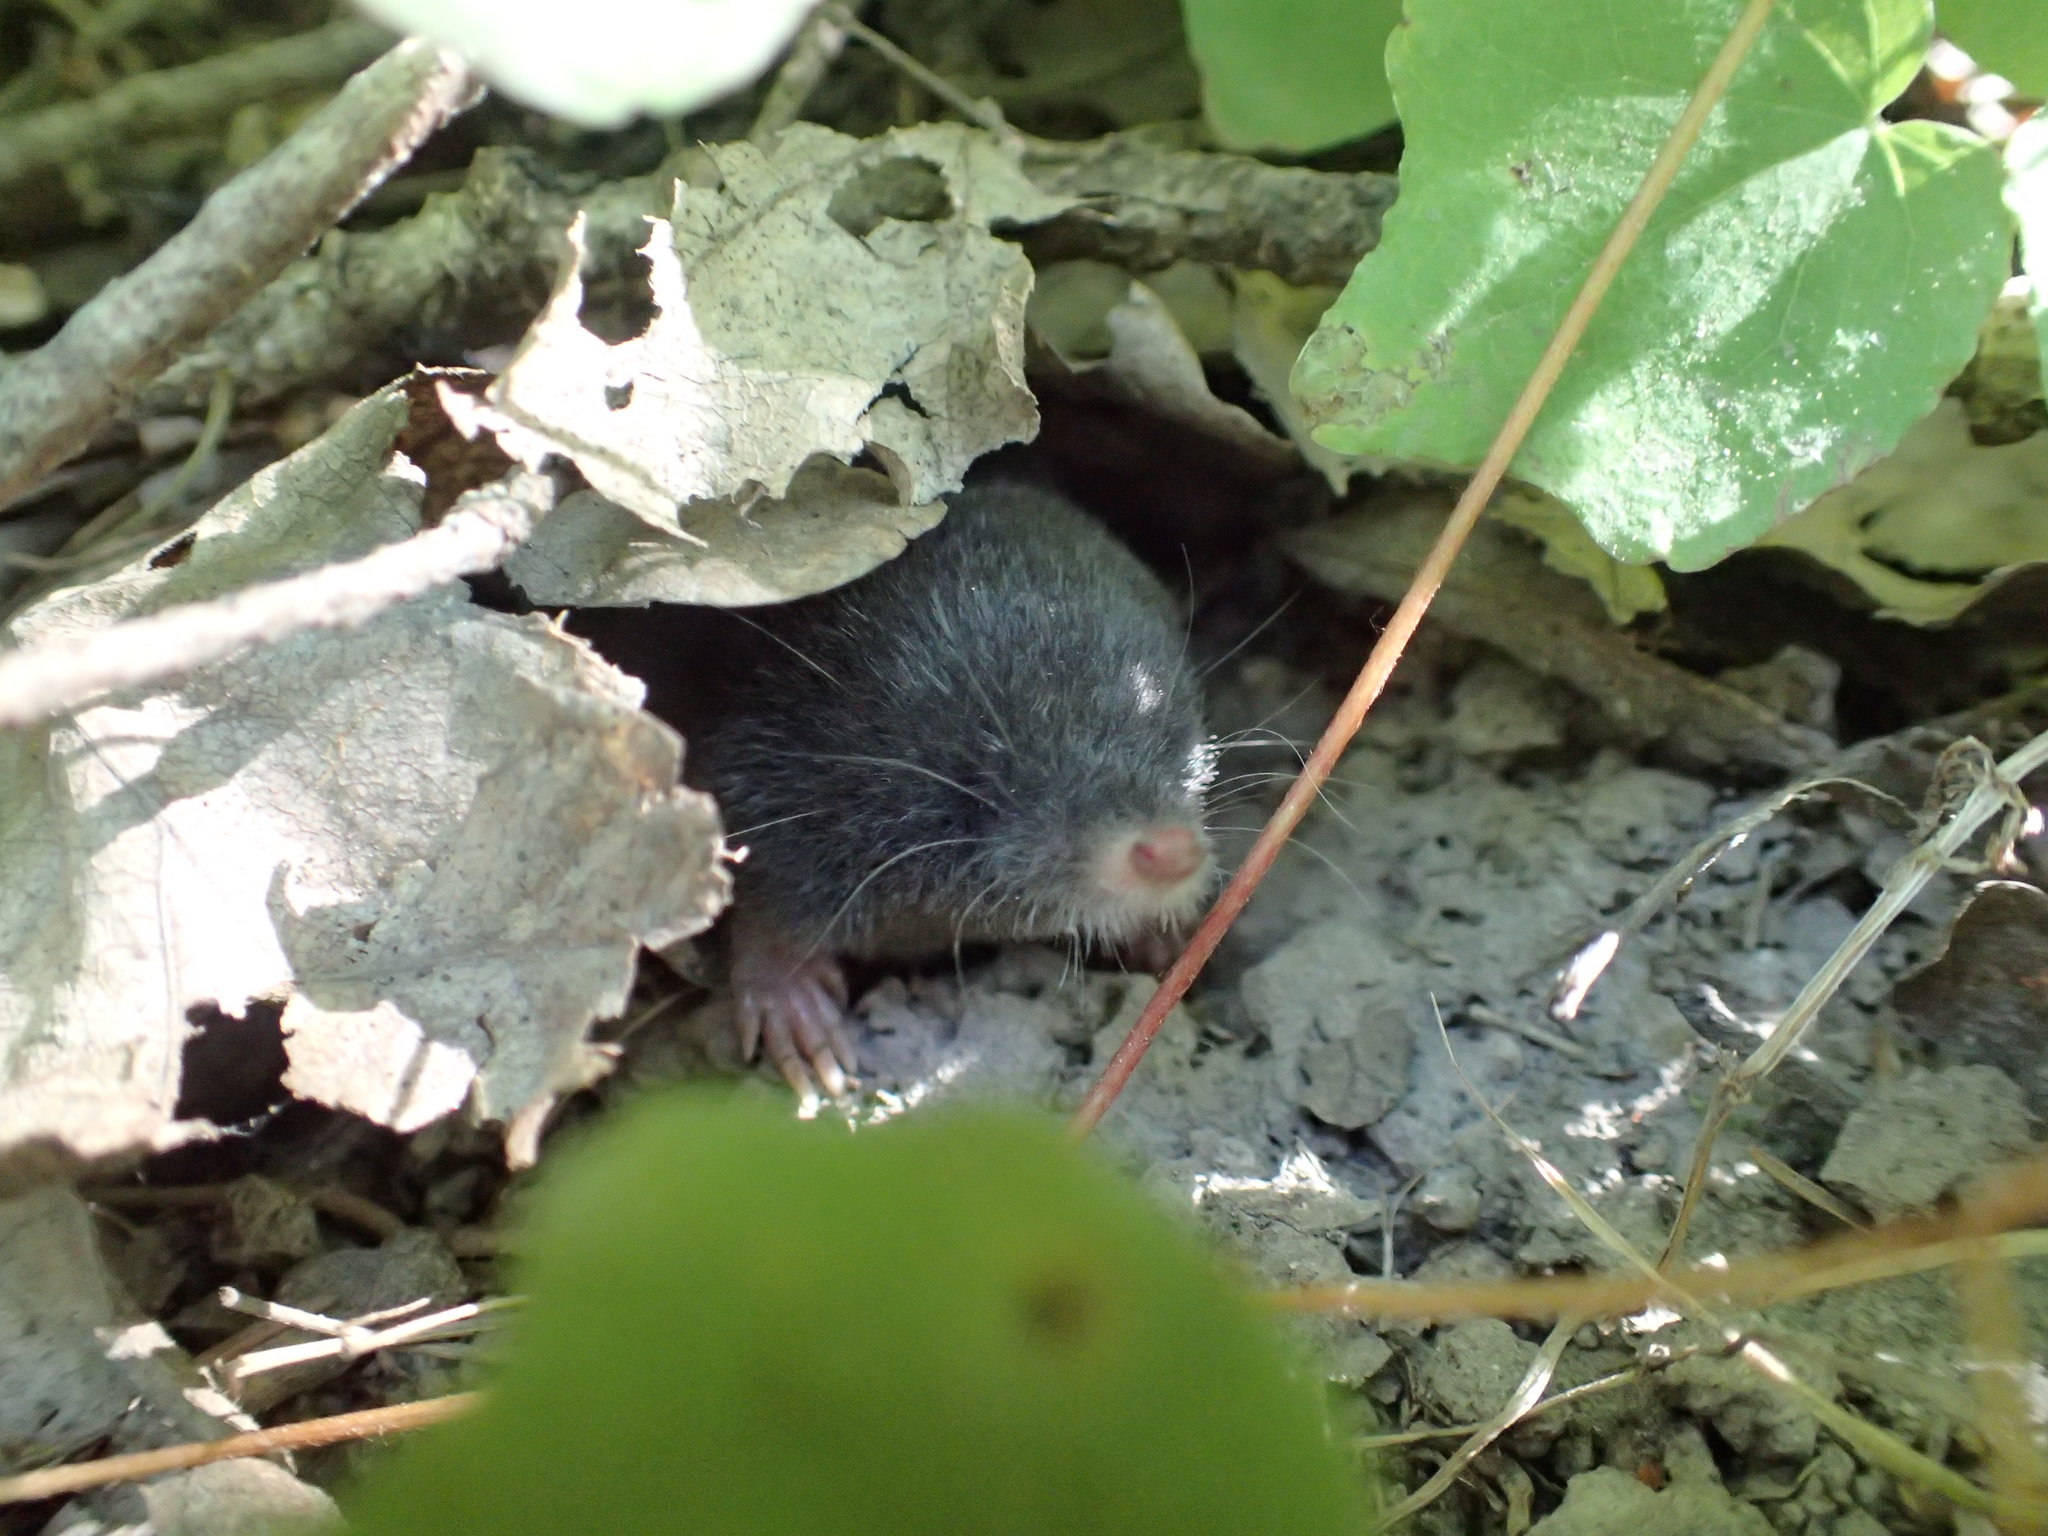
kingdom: Animalia
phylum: Chordata
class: Mammalia
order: Soricomorpha
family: Talpidae
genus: Neurotrichus
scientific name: Neurotrichus gibbsii
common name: American shrew mole
